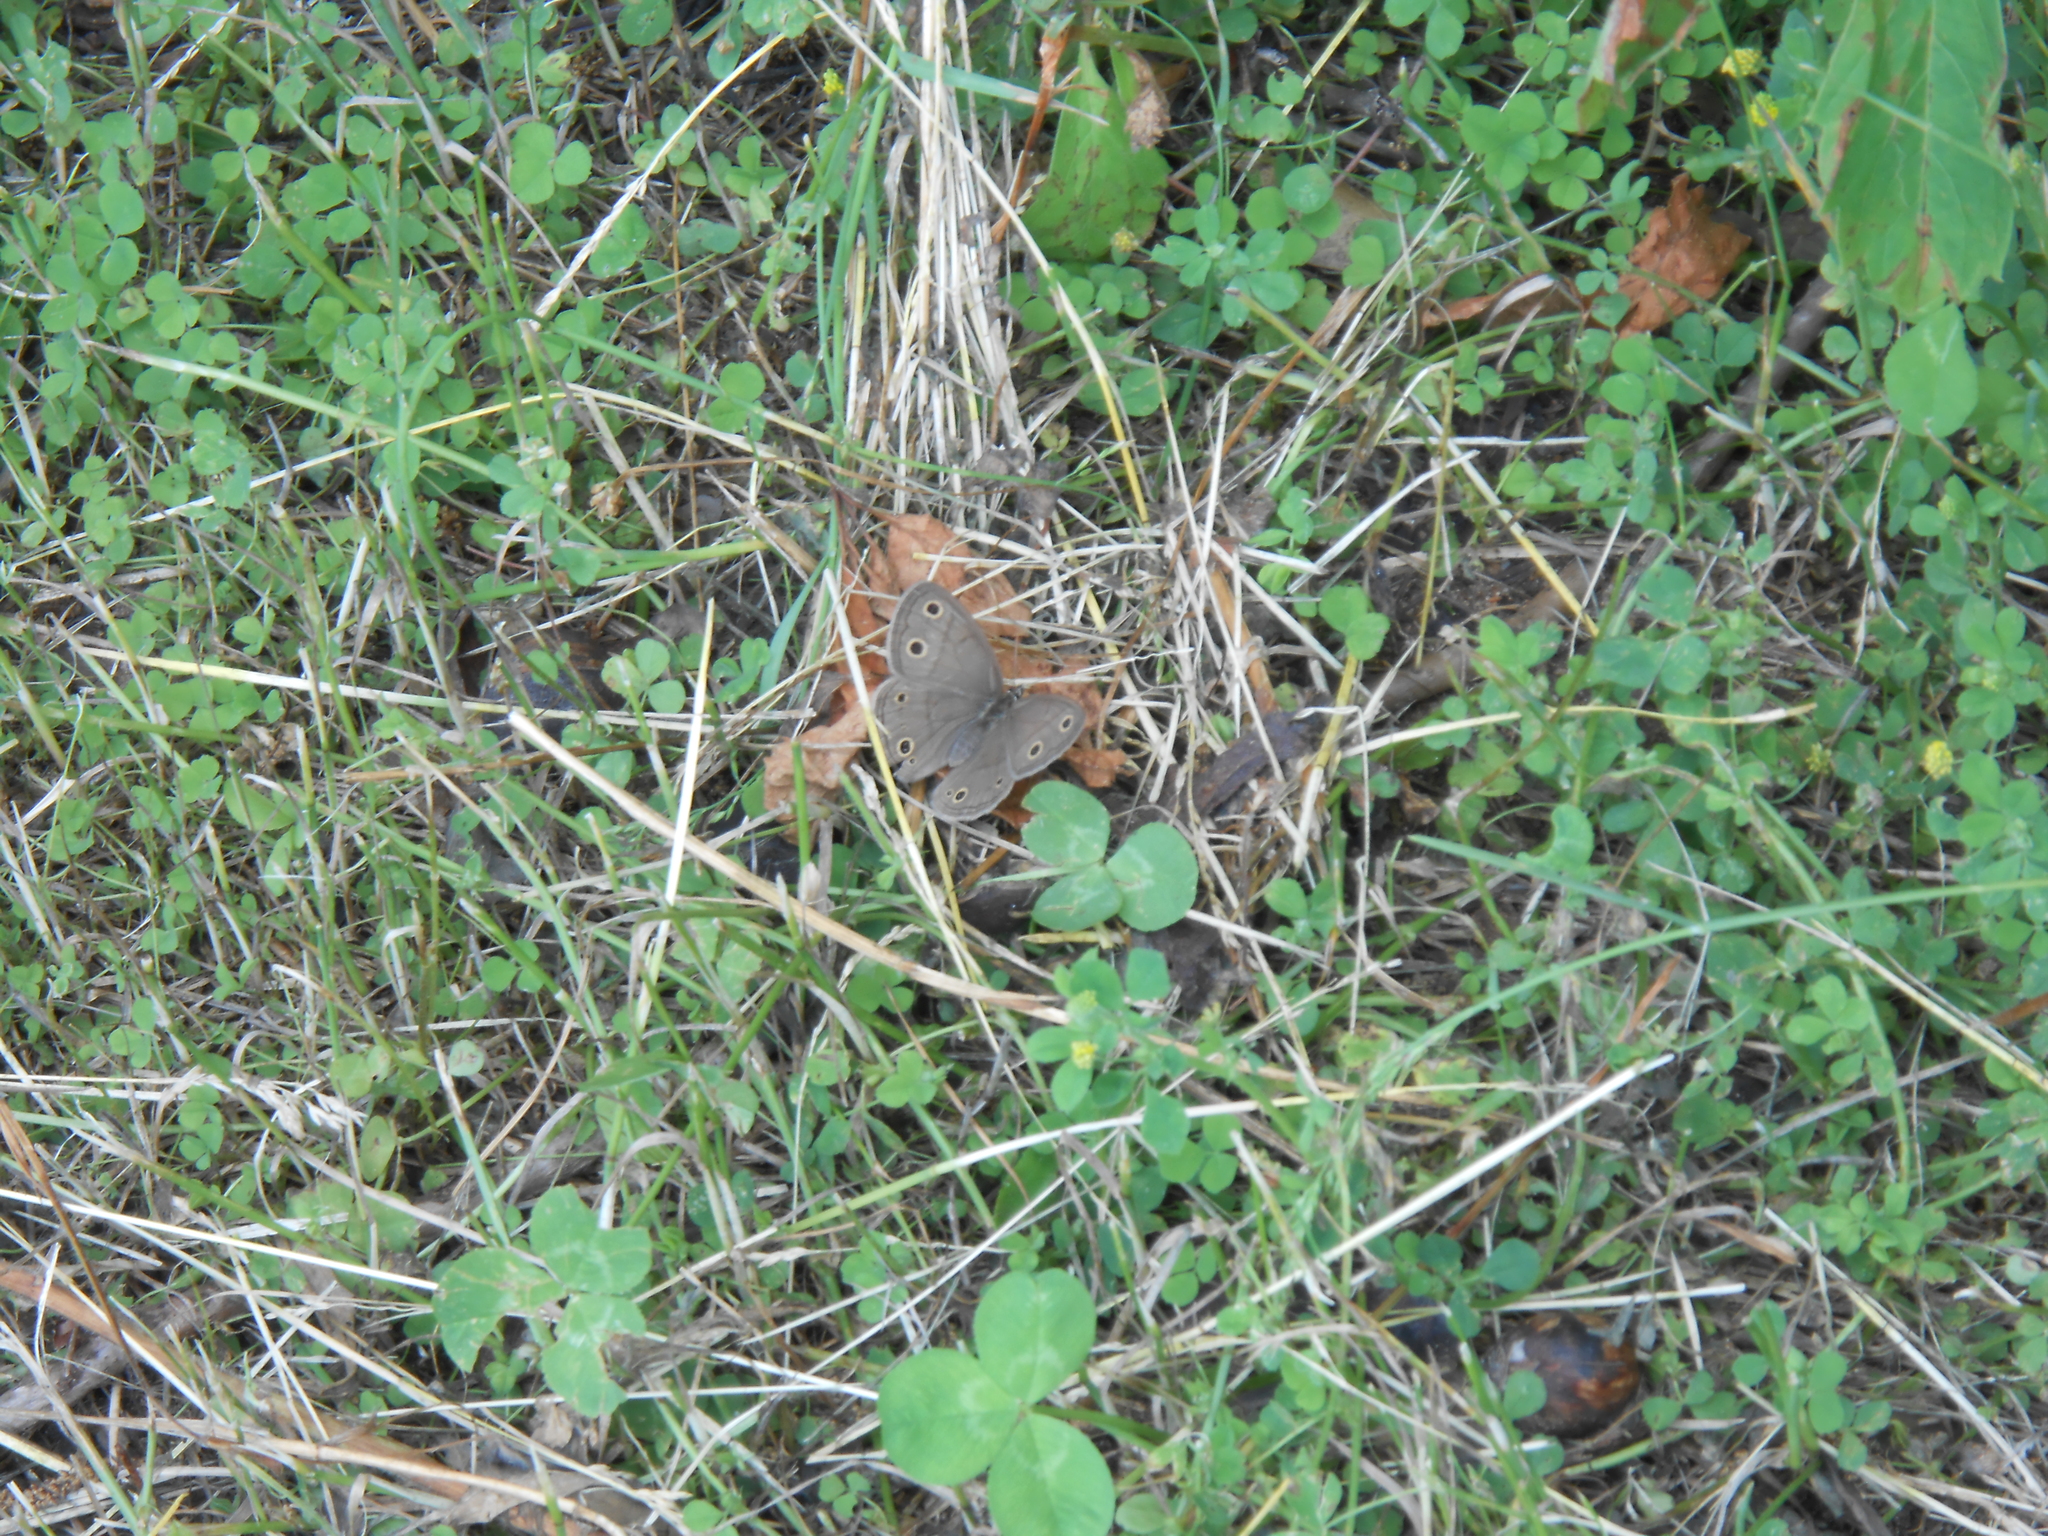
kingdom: Animalia
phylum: Arthropoda
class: Insecta
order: Lepidoptera
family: Nymphalidae
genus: Euptychia
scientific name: Euptychia cymela
